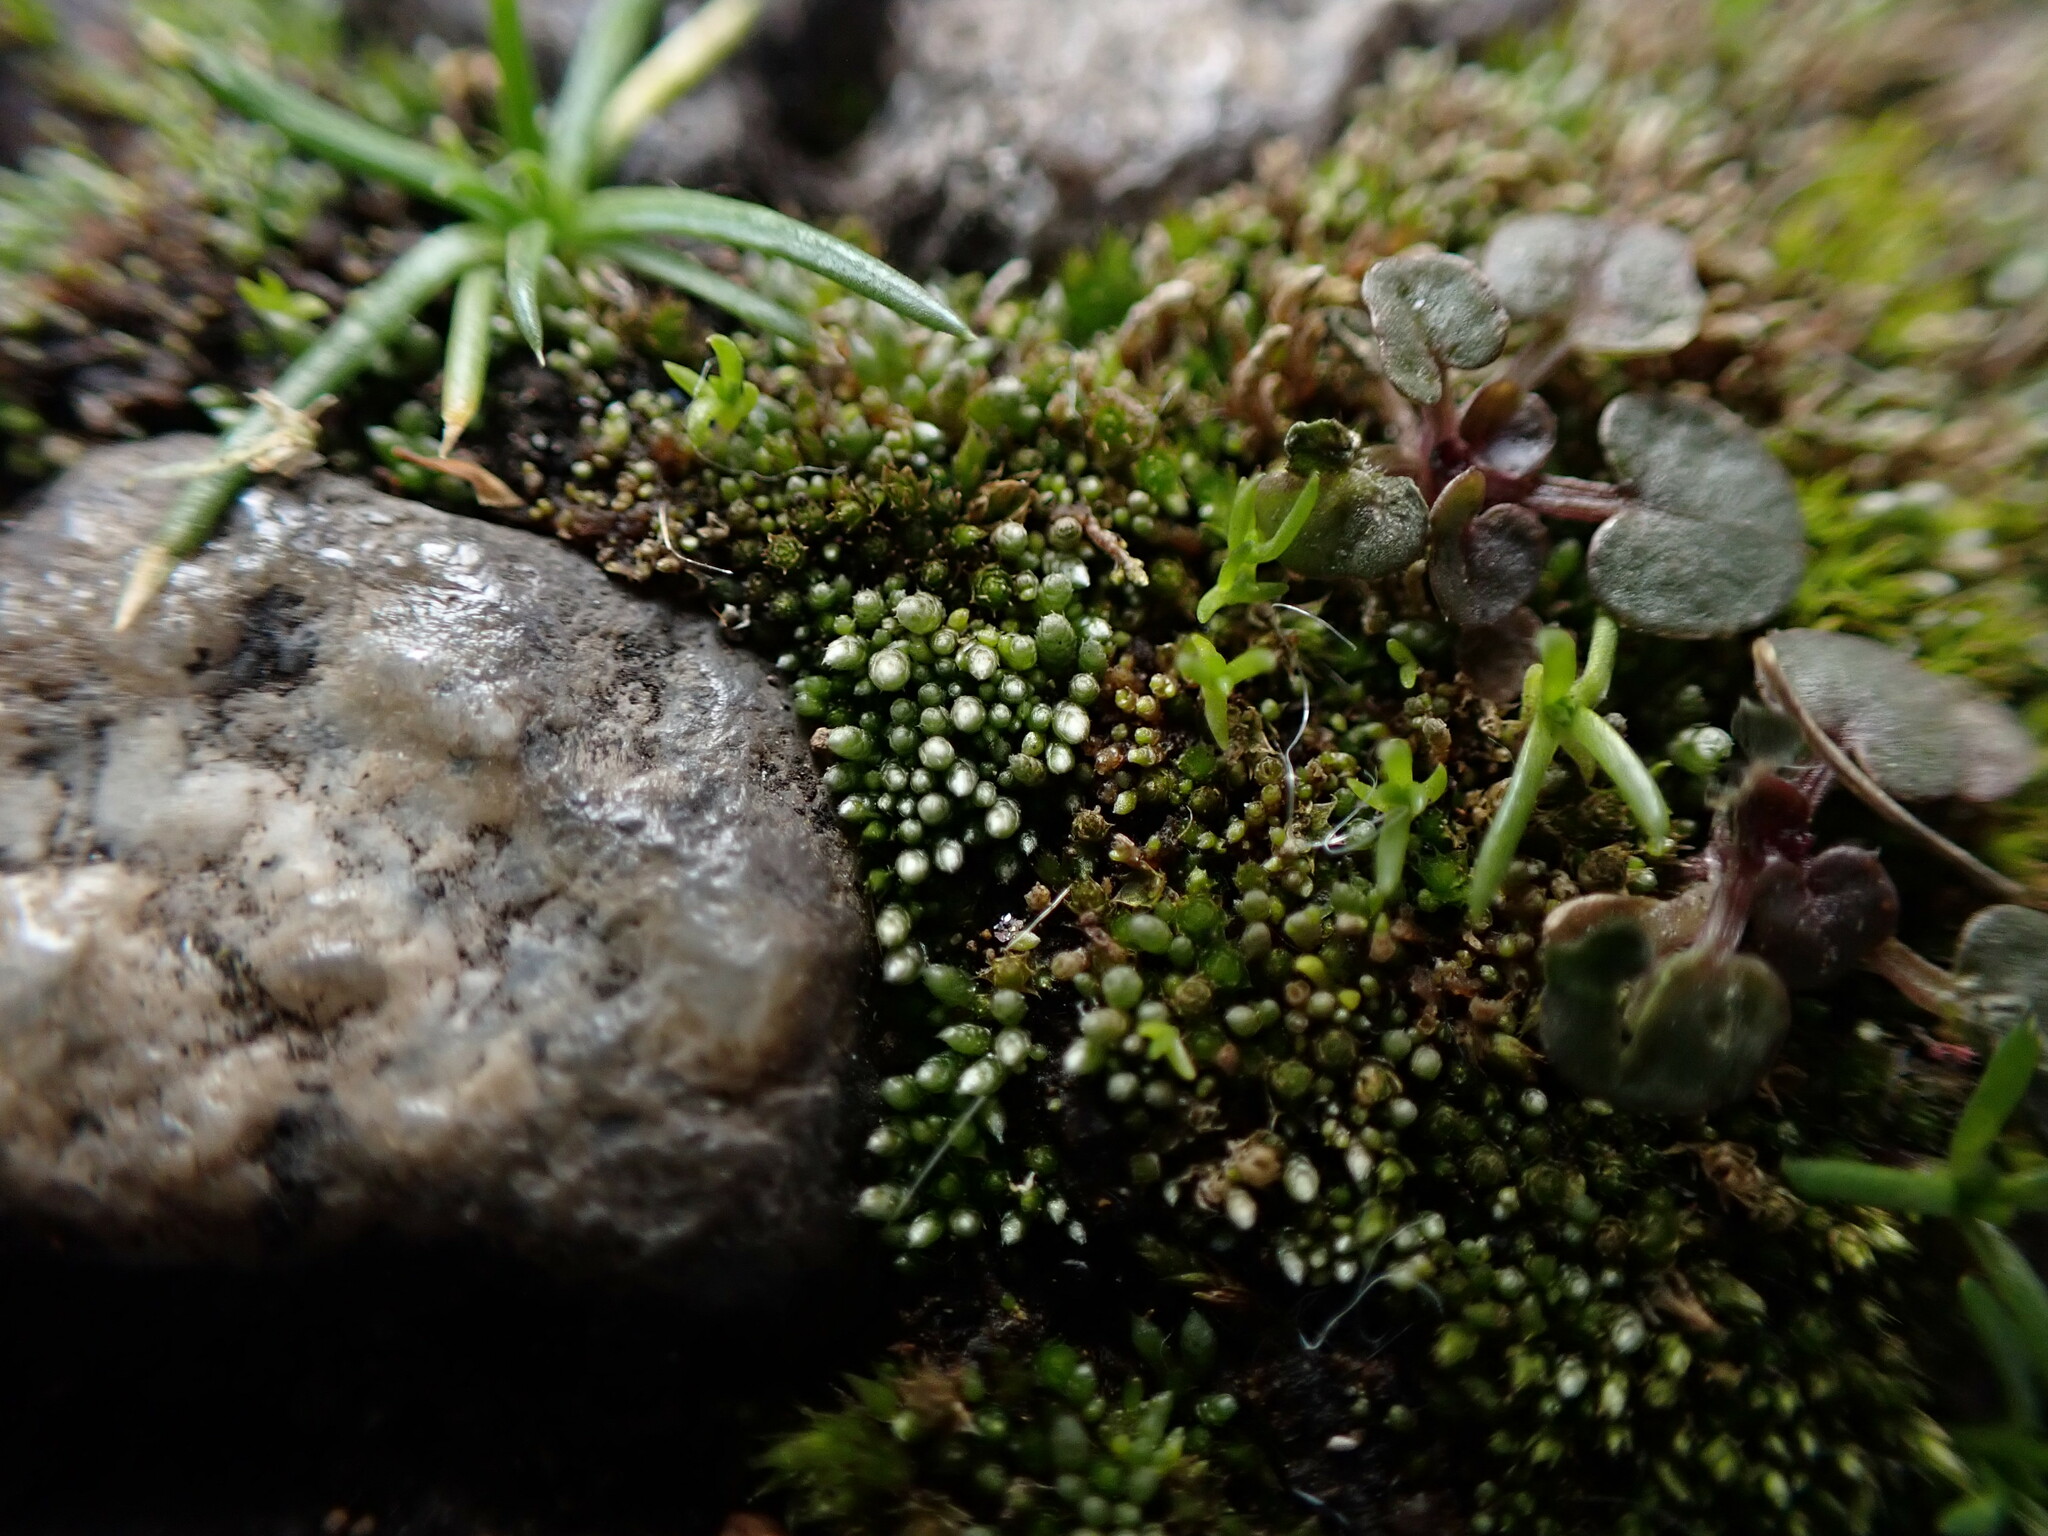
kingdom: Plantae
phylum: Bryophyta
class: Bryopsida
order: Bryales
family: Bryaceae
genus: Bryum
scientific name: Bryum argenteum
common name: Silver-moss
